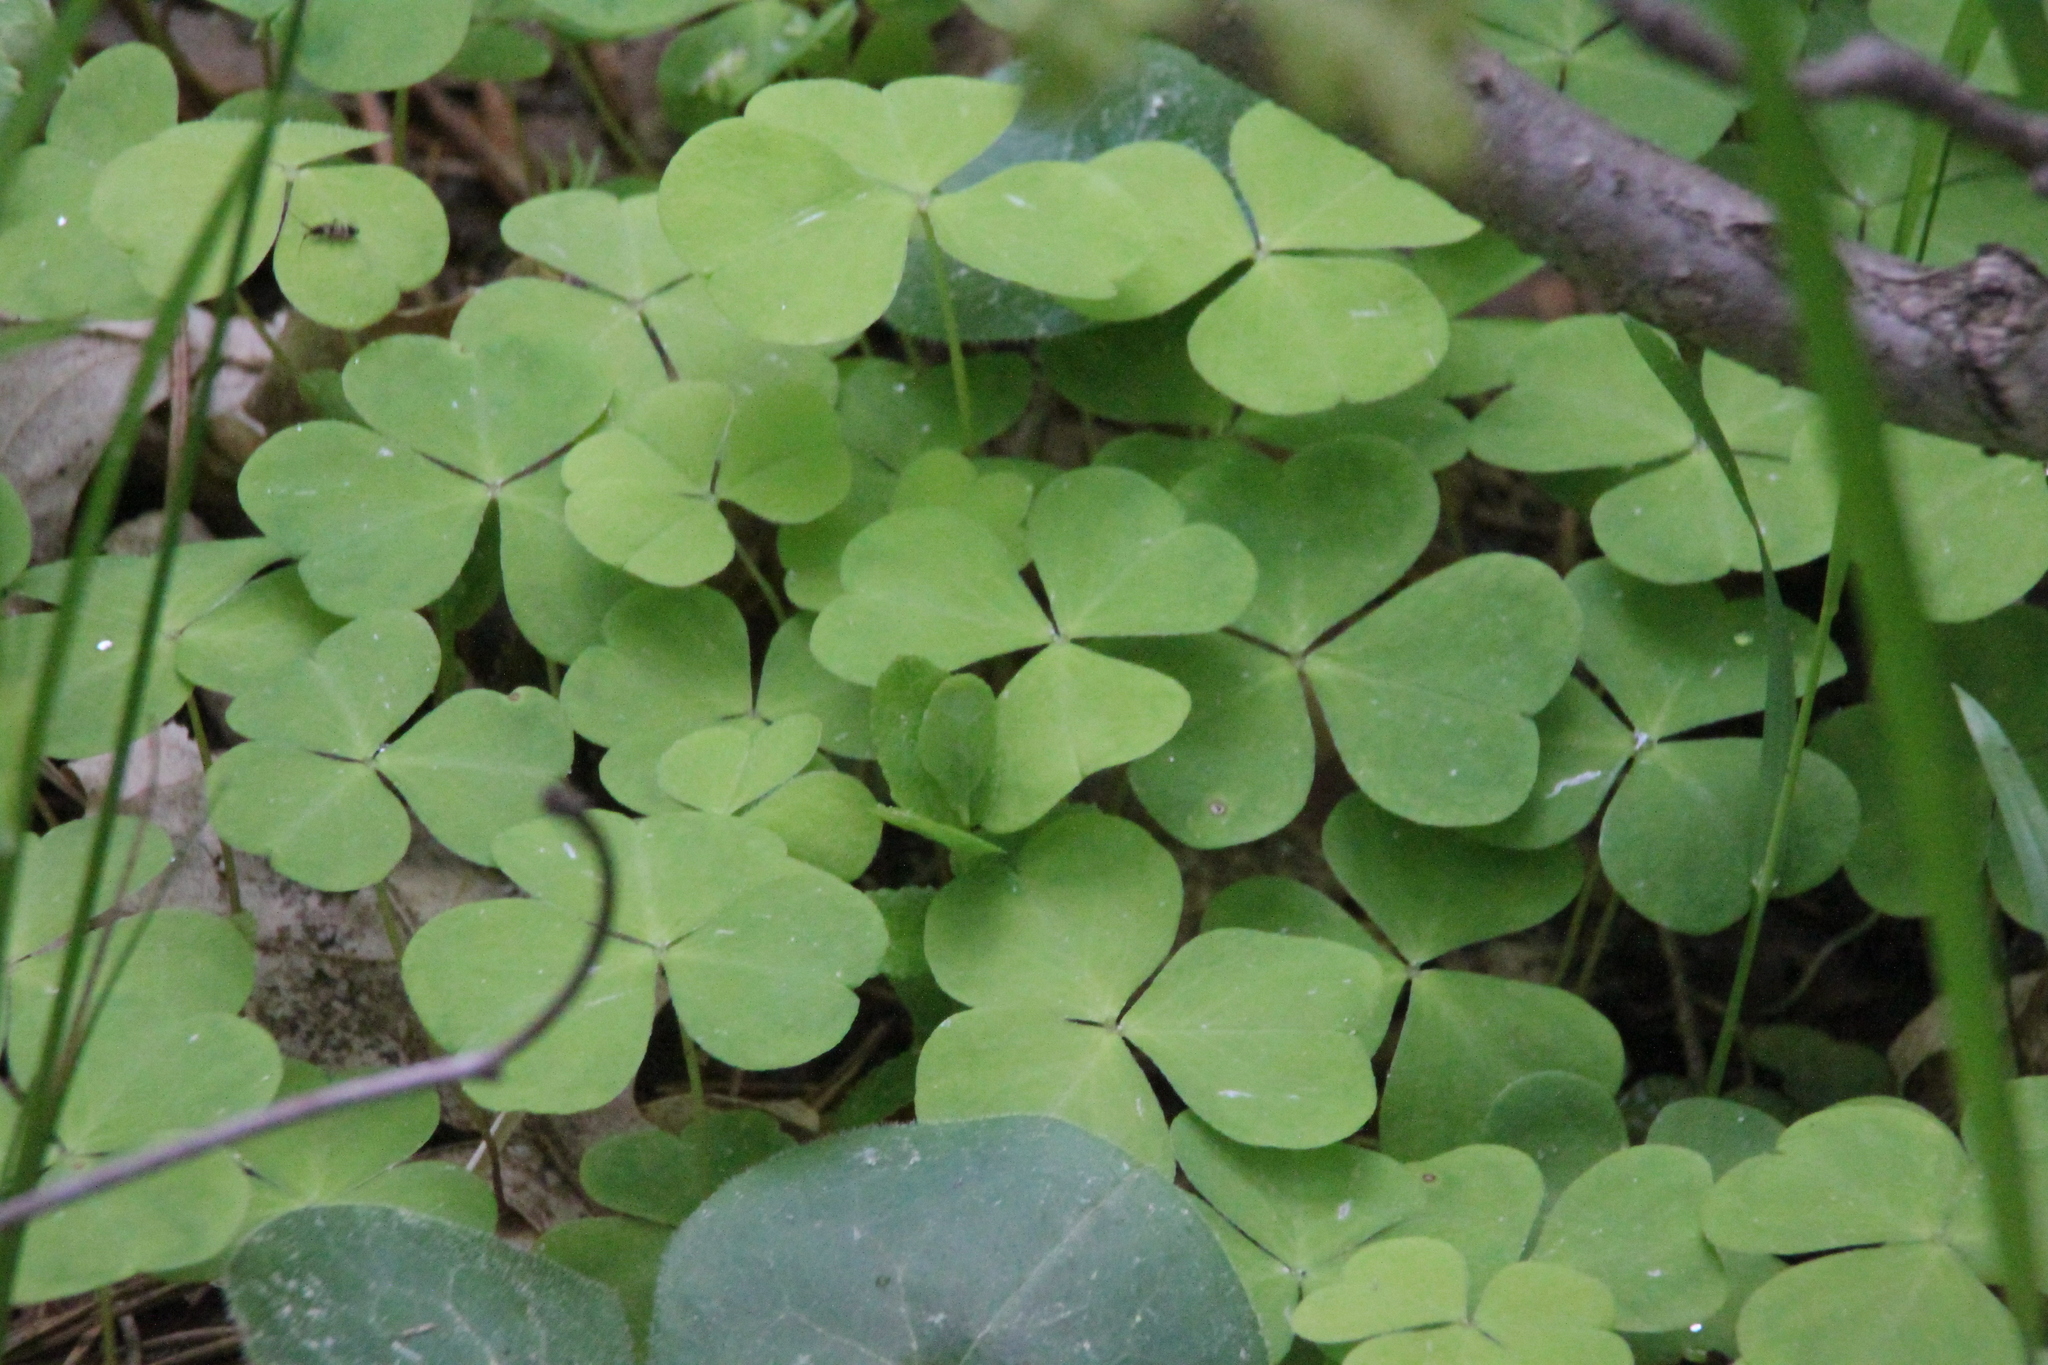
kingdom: Plantae
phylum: Tracheophyta
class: Magnoliopsida
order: Oxalidales
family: Oxalidaceae
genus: Oxalis
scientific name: Oxalis acetosella
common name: Wood-sorrel
